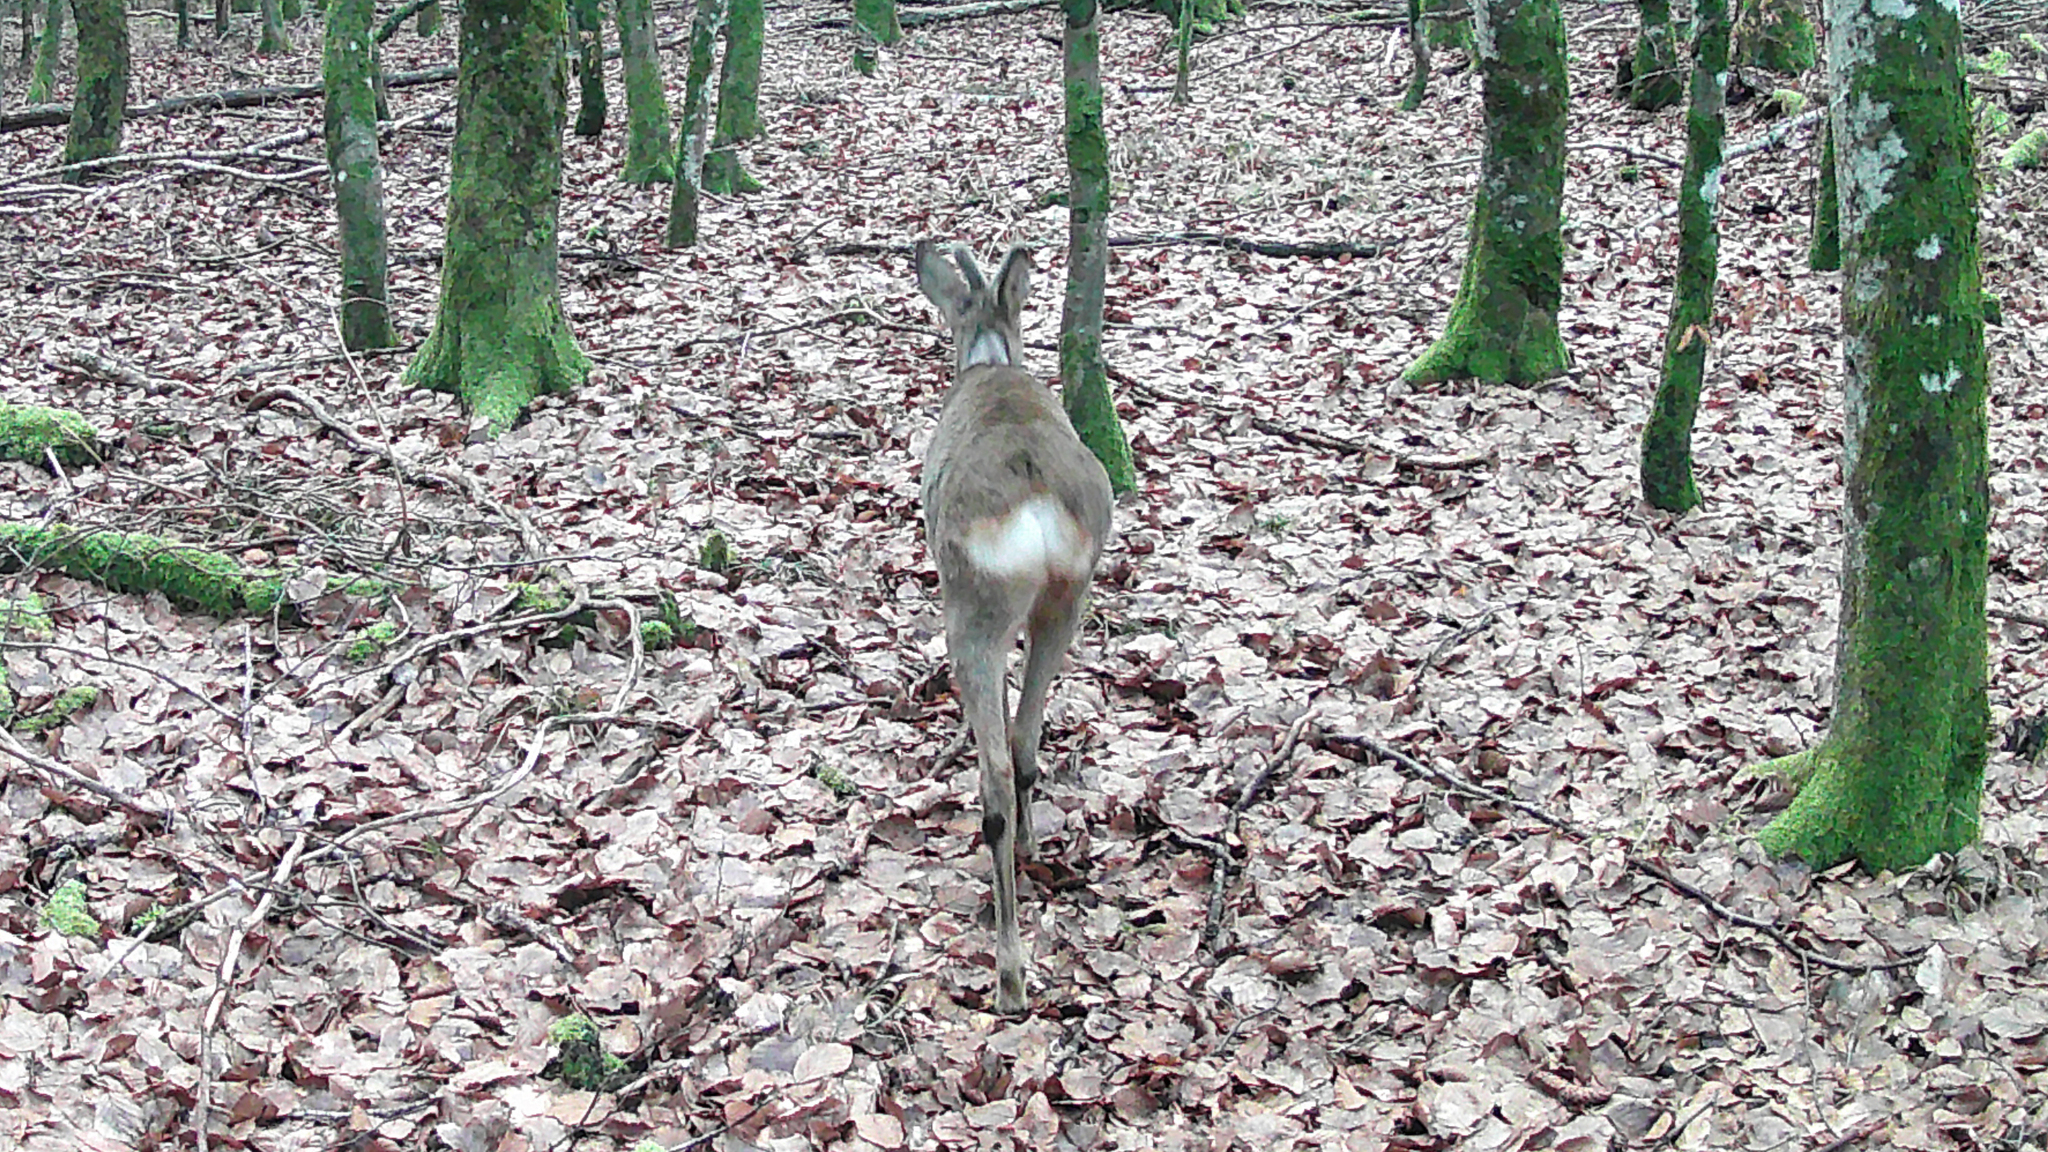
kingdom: Animalia
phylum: Chordata
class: Mammalia
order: Artiodactyla
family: Cervidae
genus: Capreolus
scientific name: Capreolus capreolus
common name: Western roe deer
